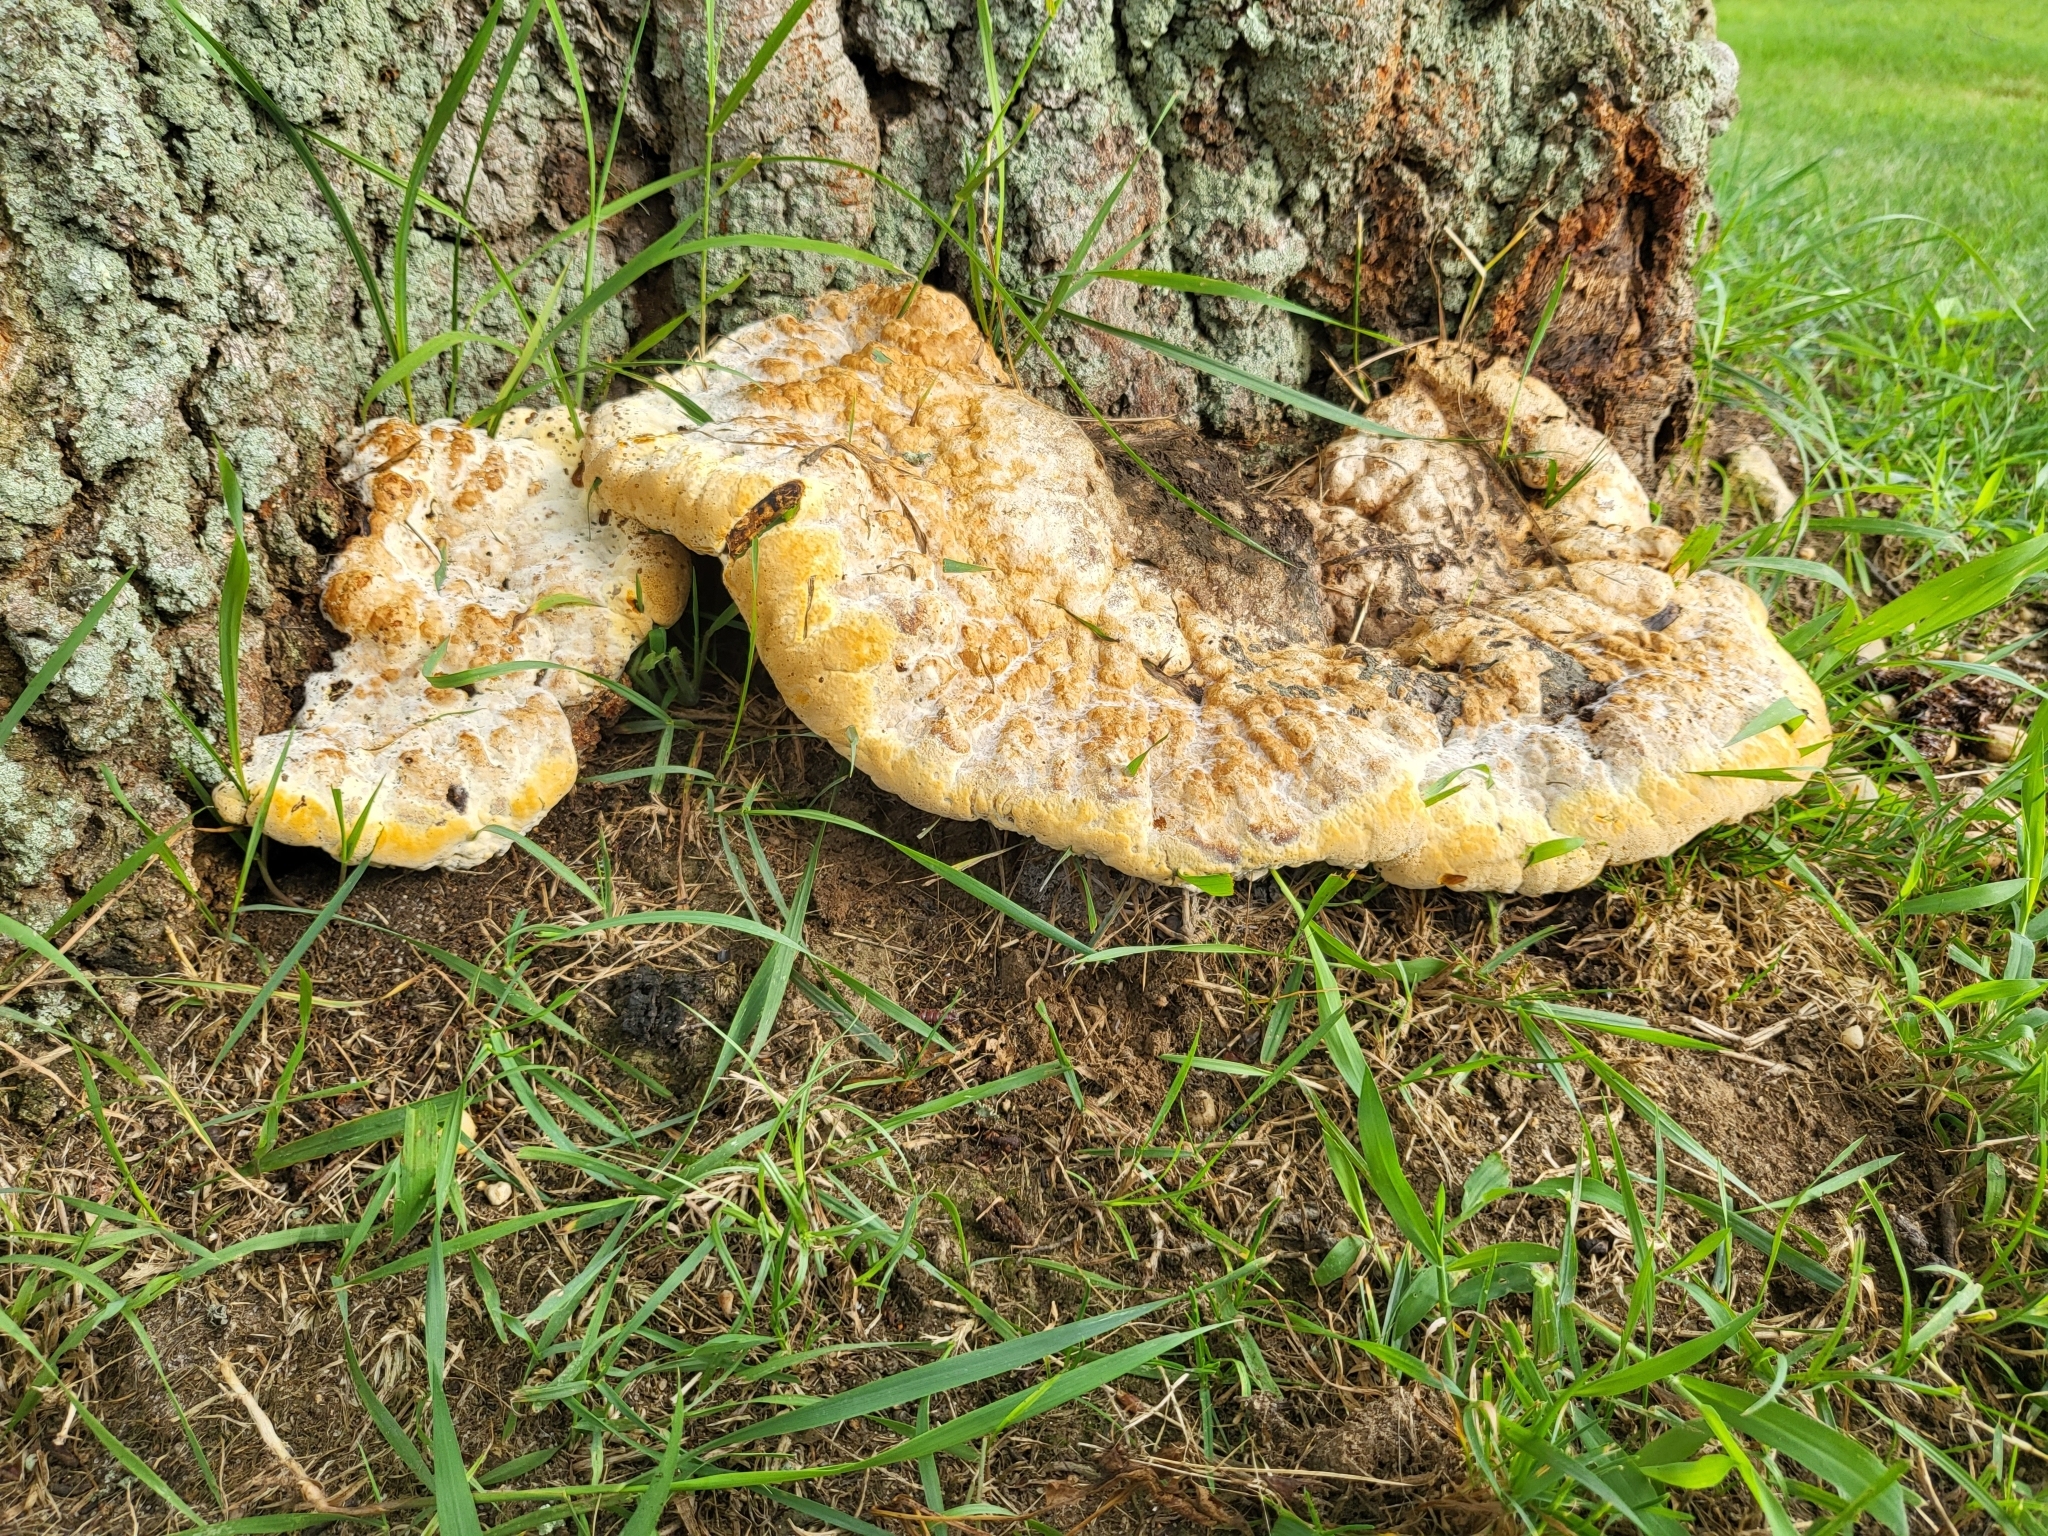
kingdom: Fungi
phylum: Basidiomycota
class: Agaricomycetes
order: Hymenochaetales
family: Hymenochaetaceae
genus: Pseudoinonotus
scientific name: Pseudoinonotus dryadeus
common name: Oak bracket
